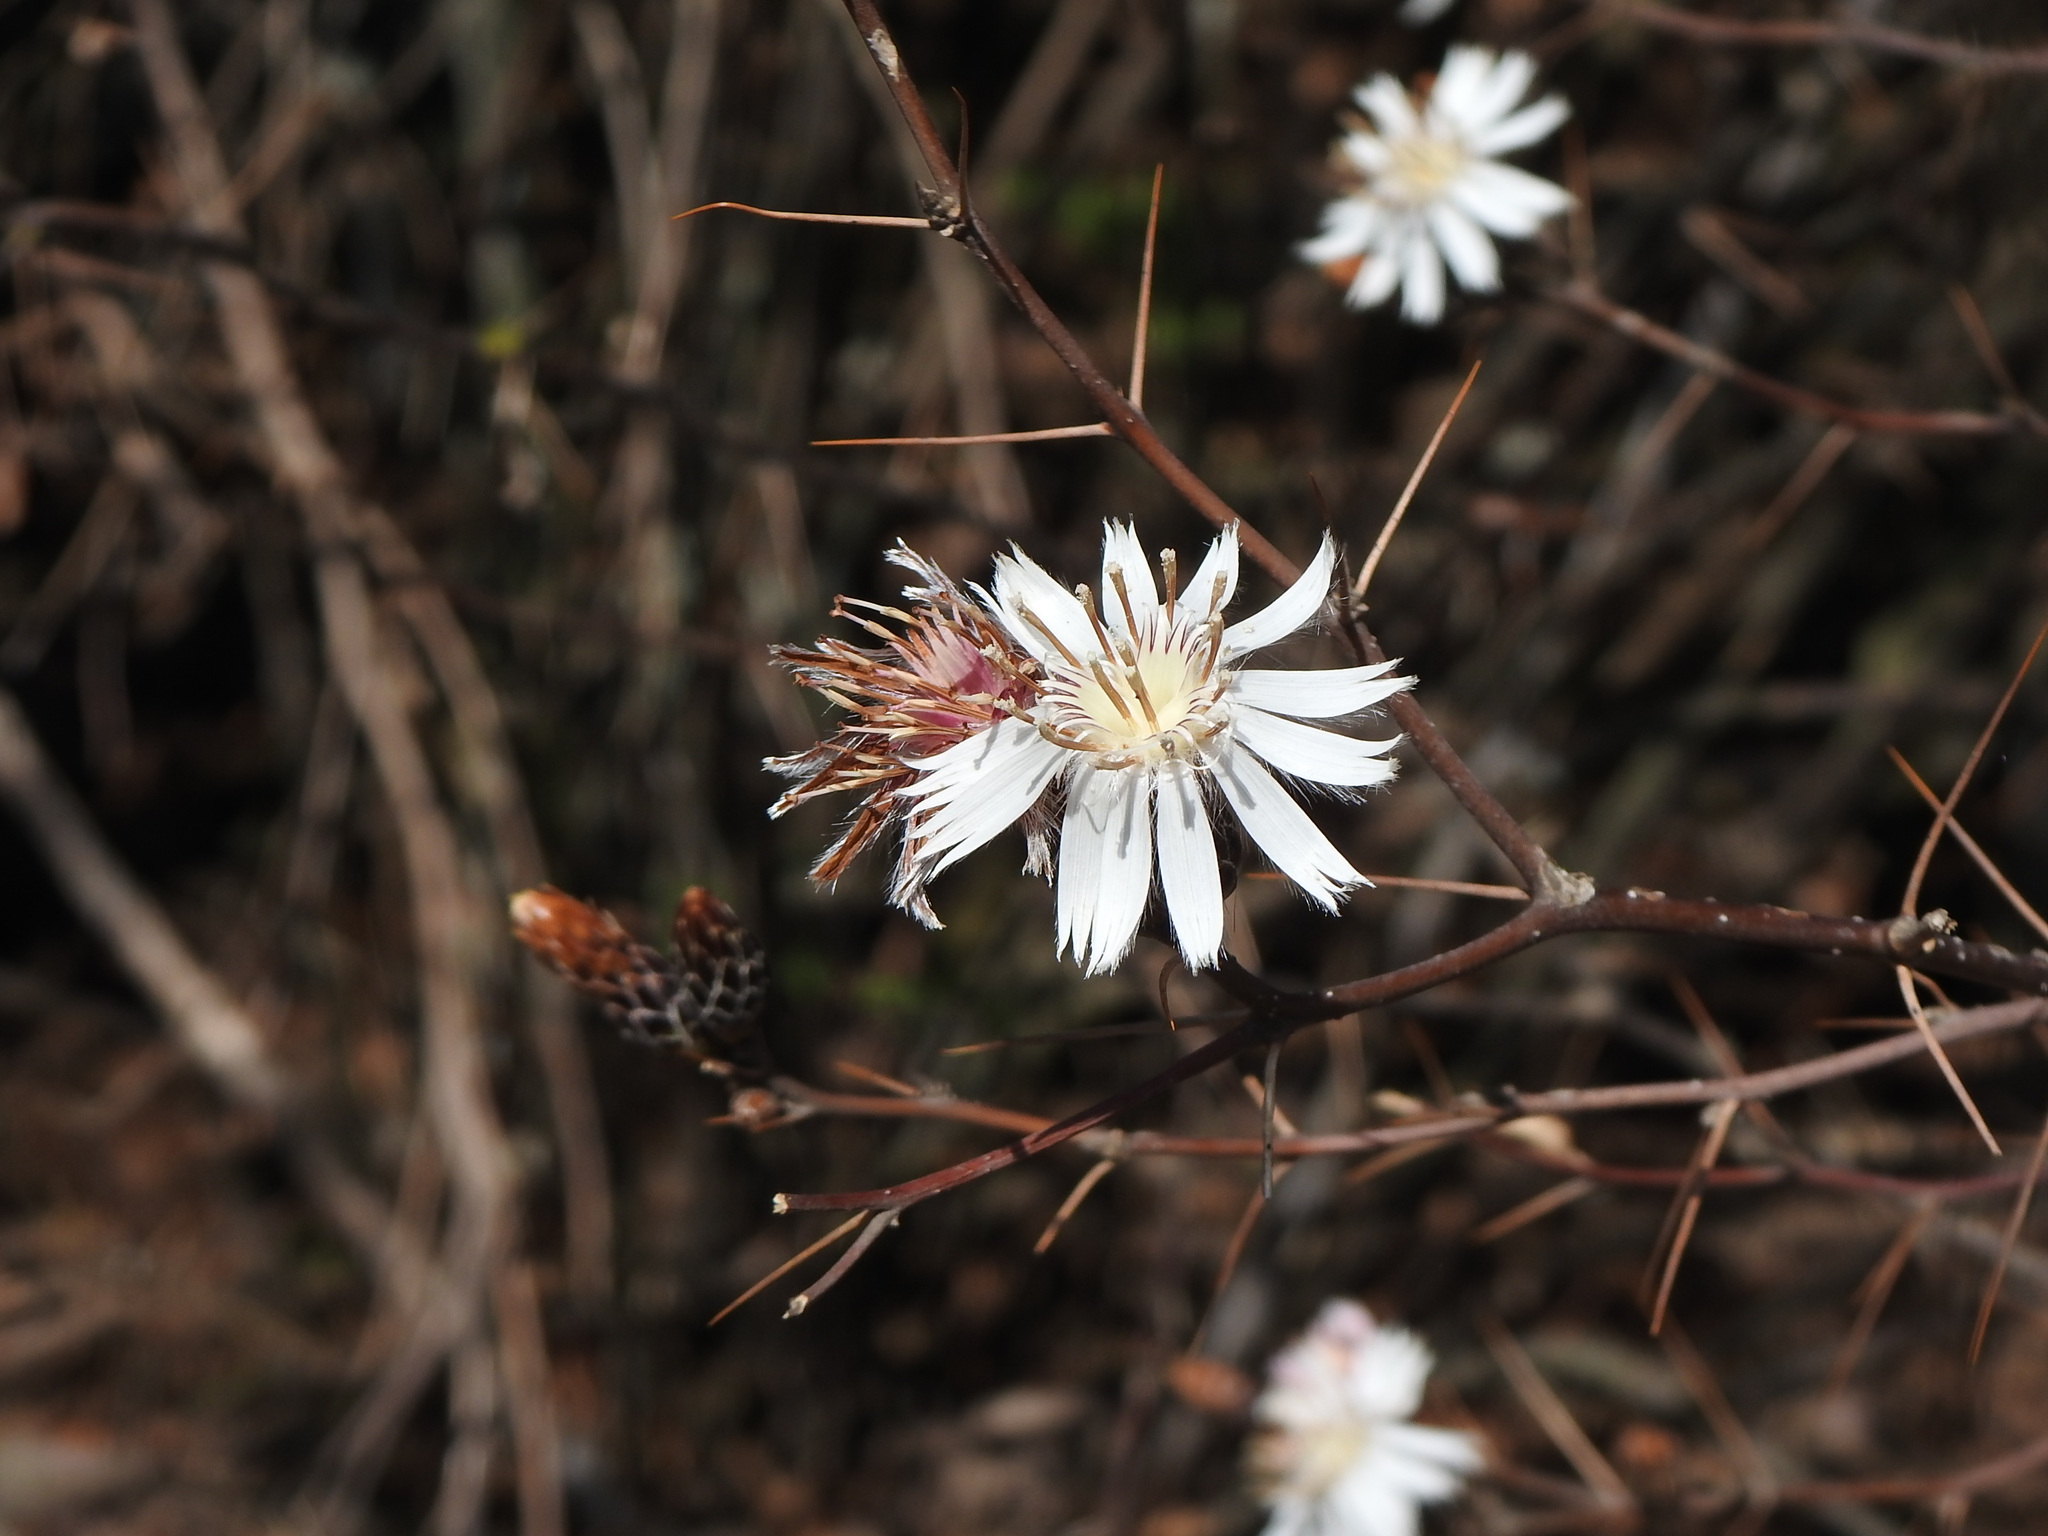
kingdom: Plantae
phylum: Tracheophyta
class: Magnoliopsida
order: Asterales
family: Asteraceae
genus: Barnadesia
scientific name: Barnadesia odorata
